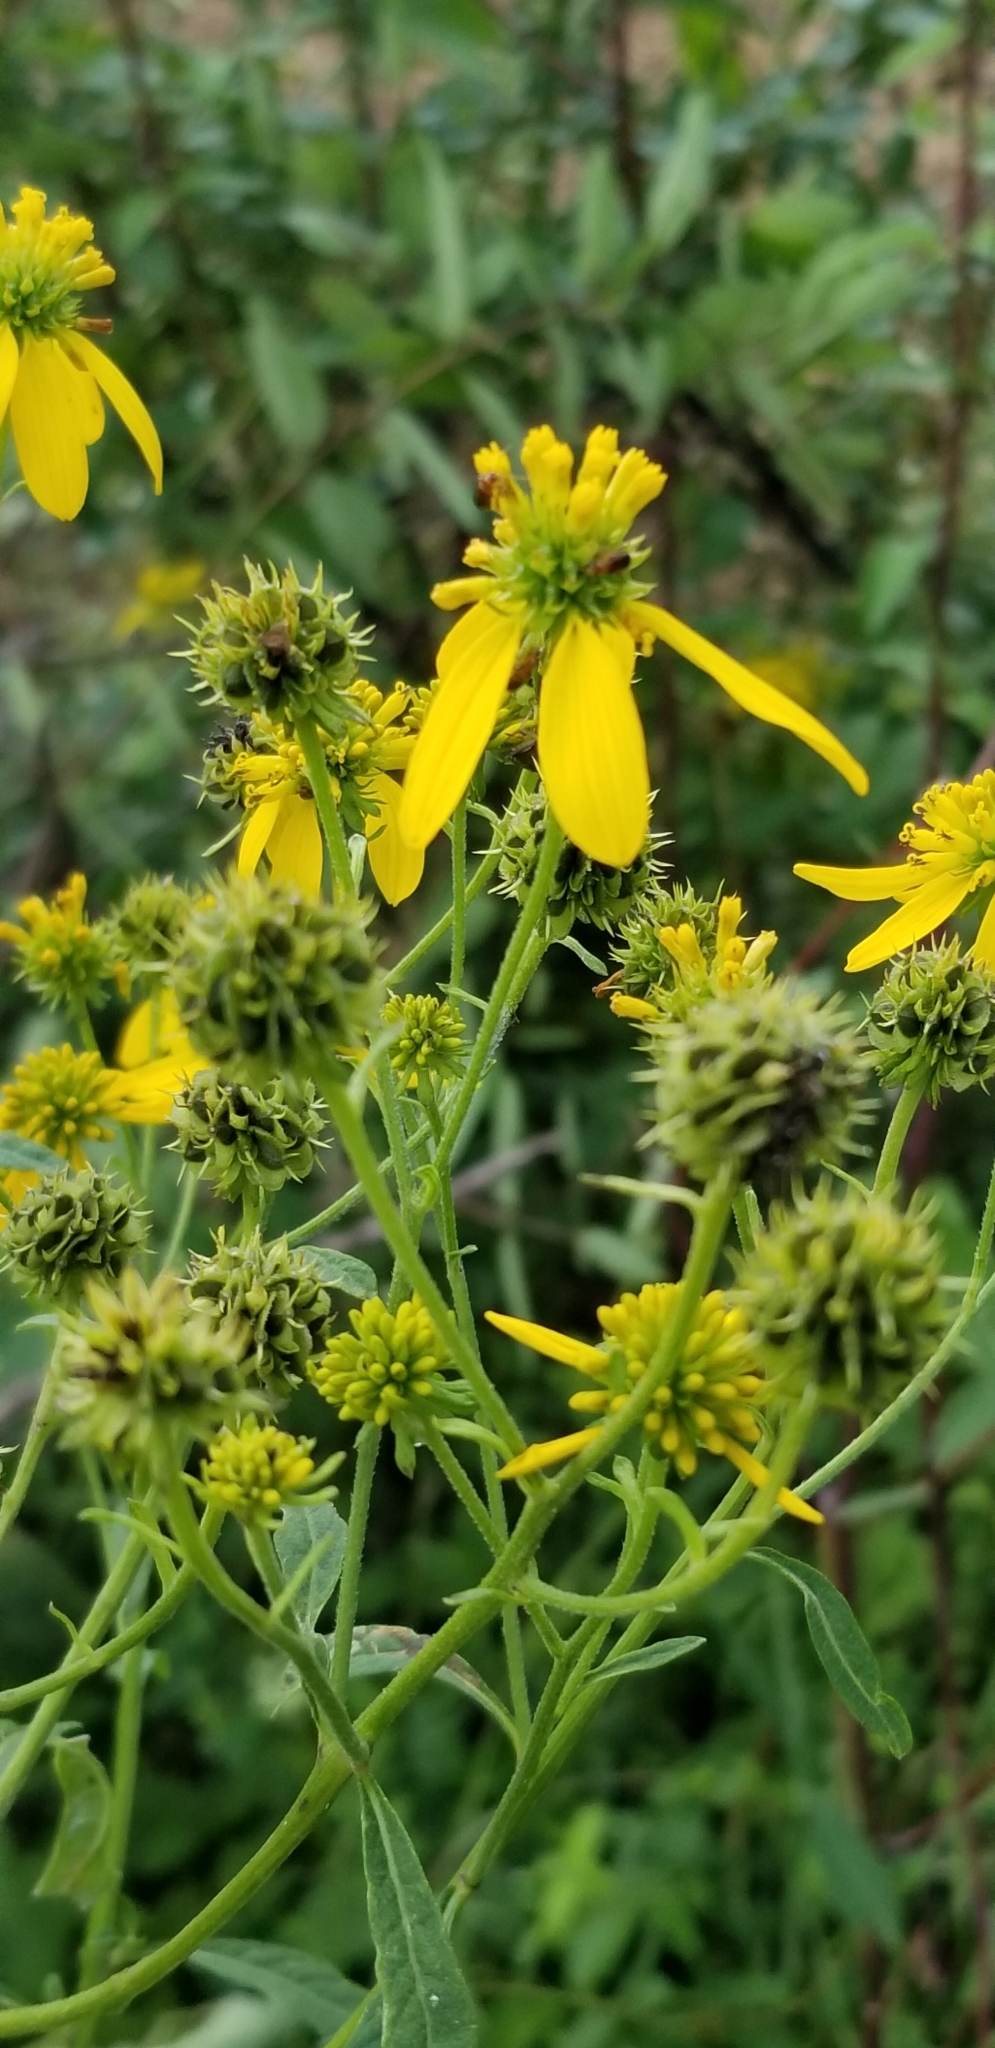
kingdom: Plantae
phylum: Tracheophyta
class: Magnoliopsida
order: Asterales
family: Asteraceae
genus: Verbesina
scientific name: Verbesina alternifolia
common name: Wingstem
